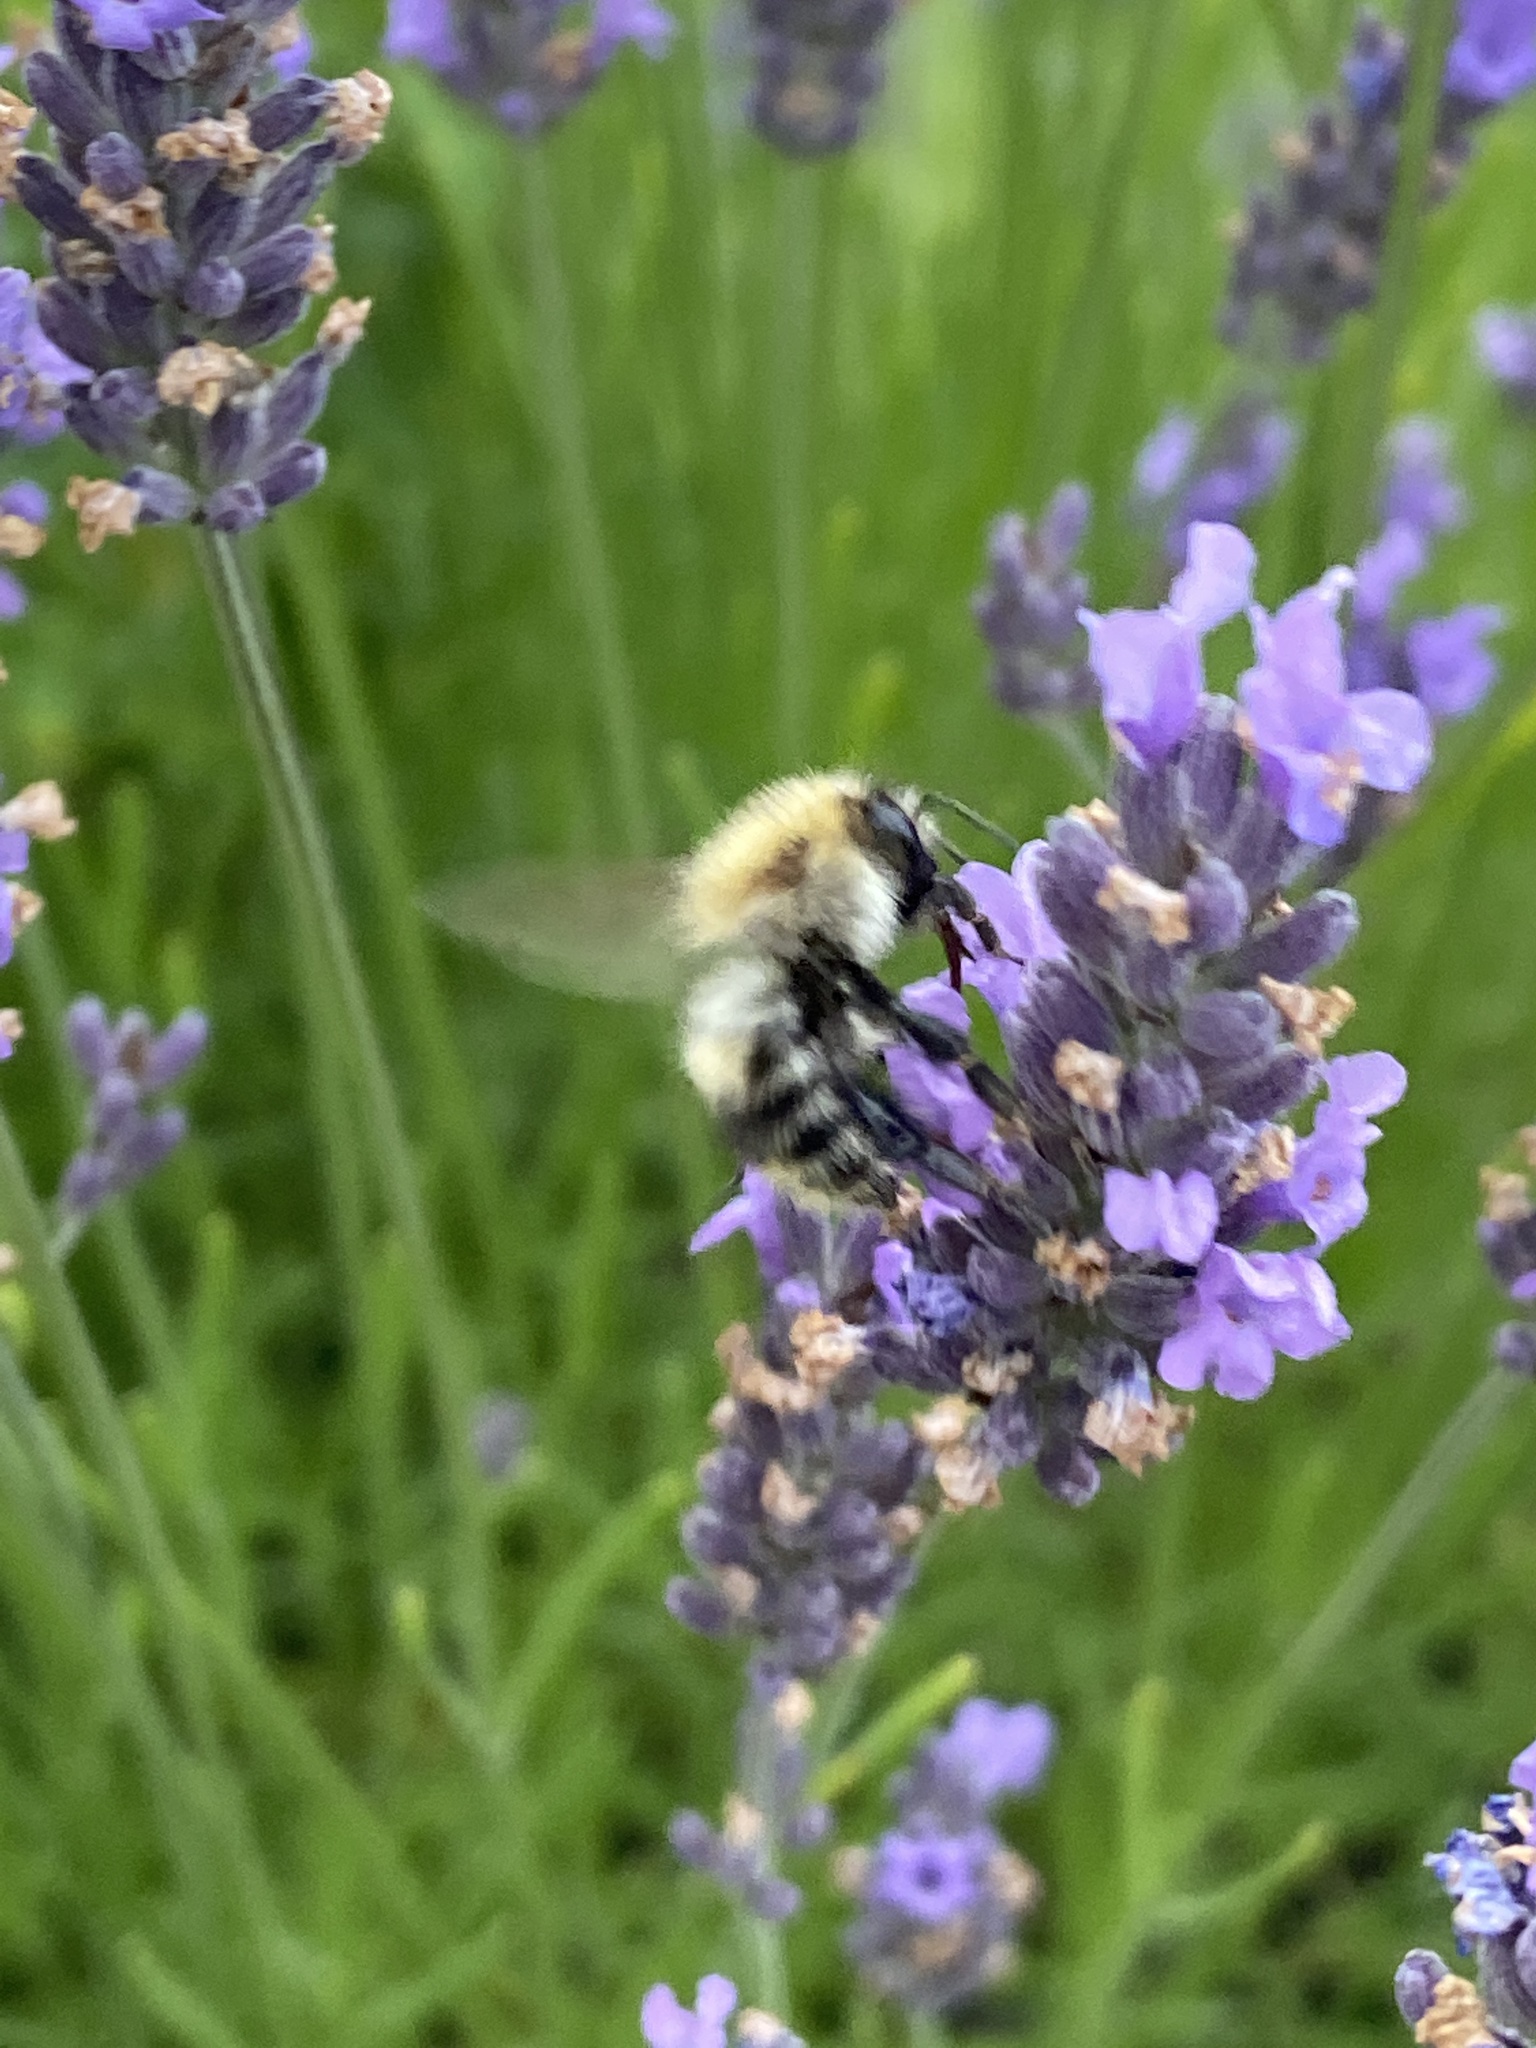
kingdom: Animalia
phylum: Arthropoda
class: Insecta
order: Hymenoptera
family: Apidae
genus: Bombus
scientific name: Bombus pascuorum
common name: Common carder bee
